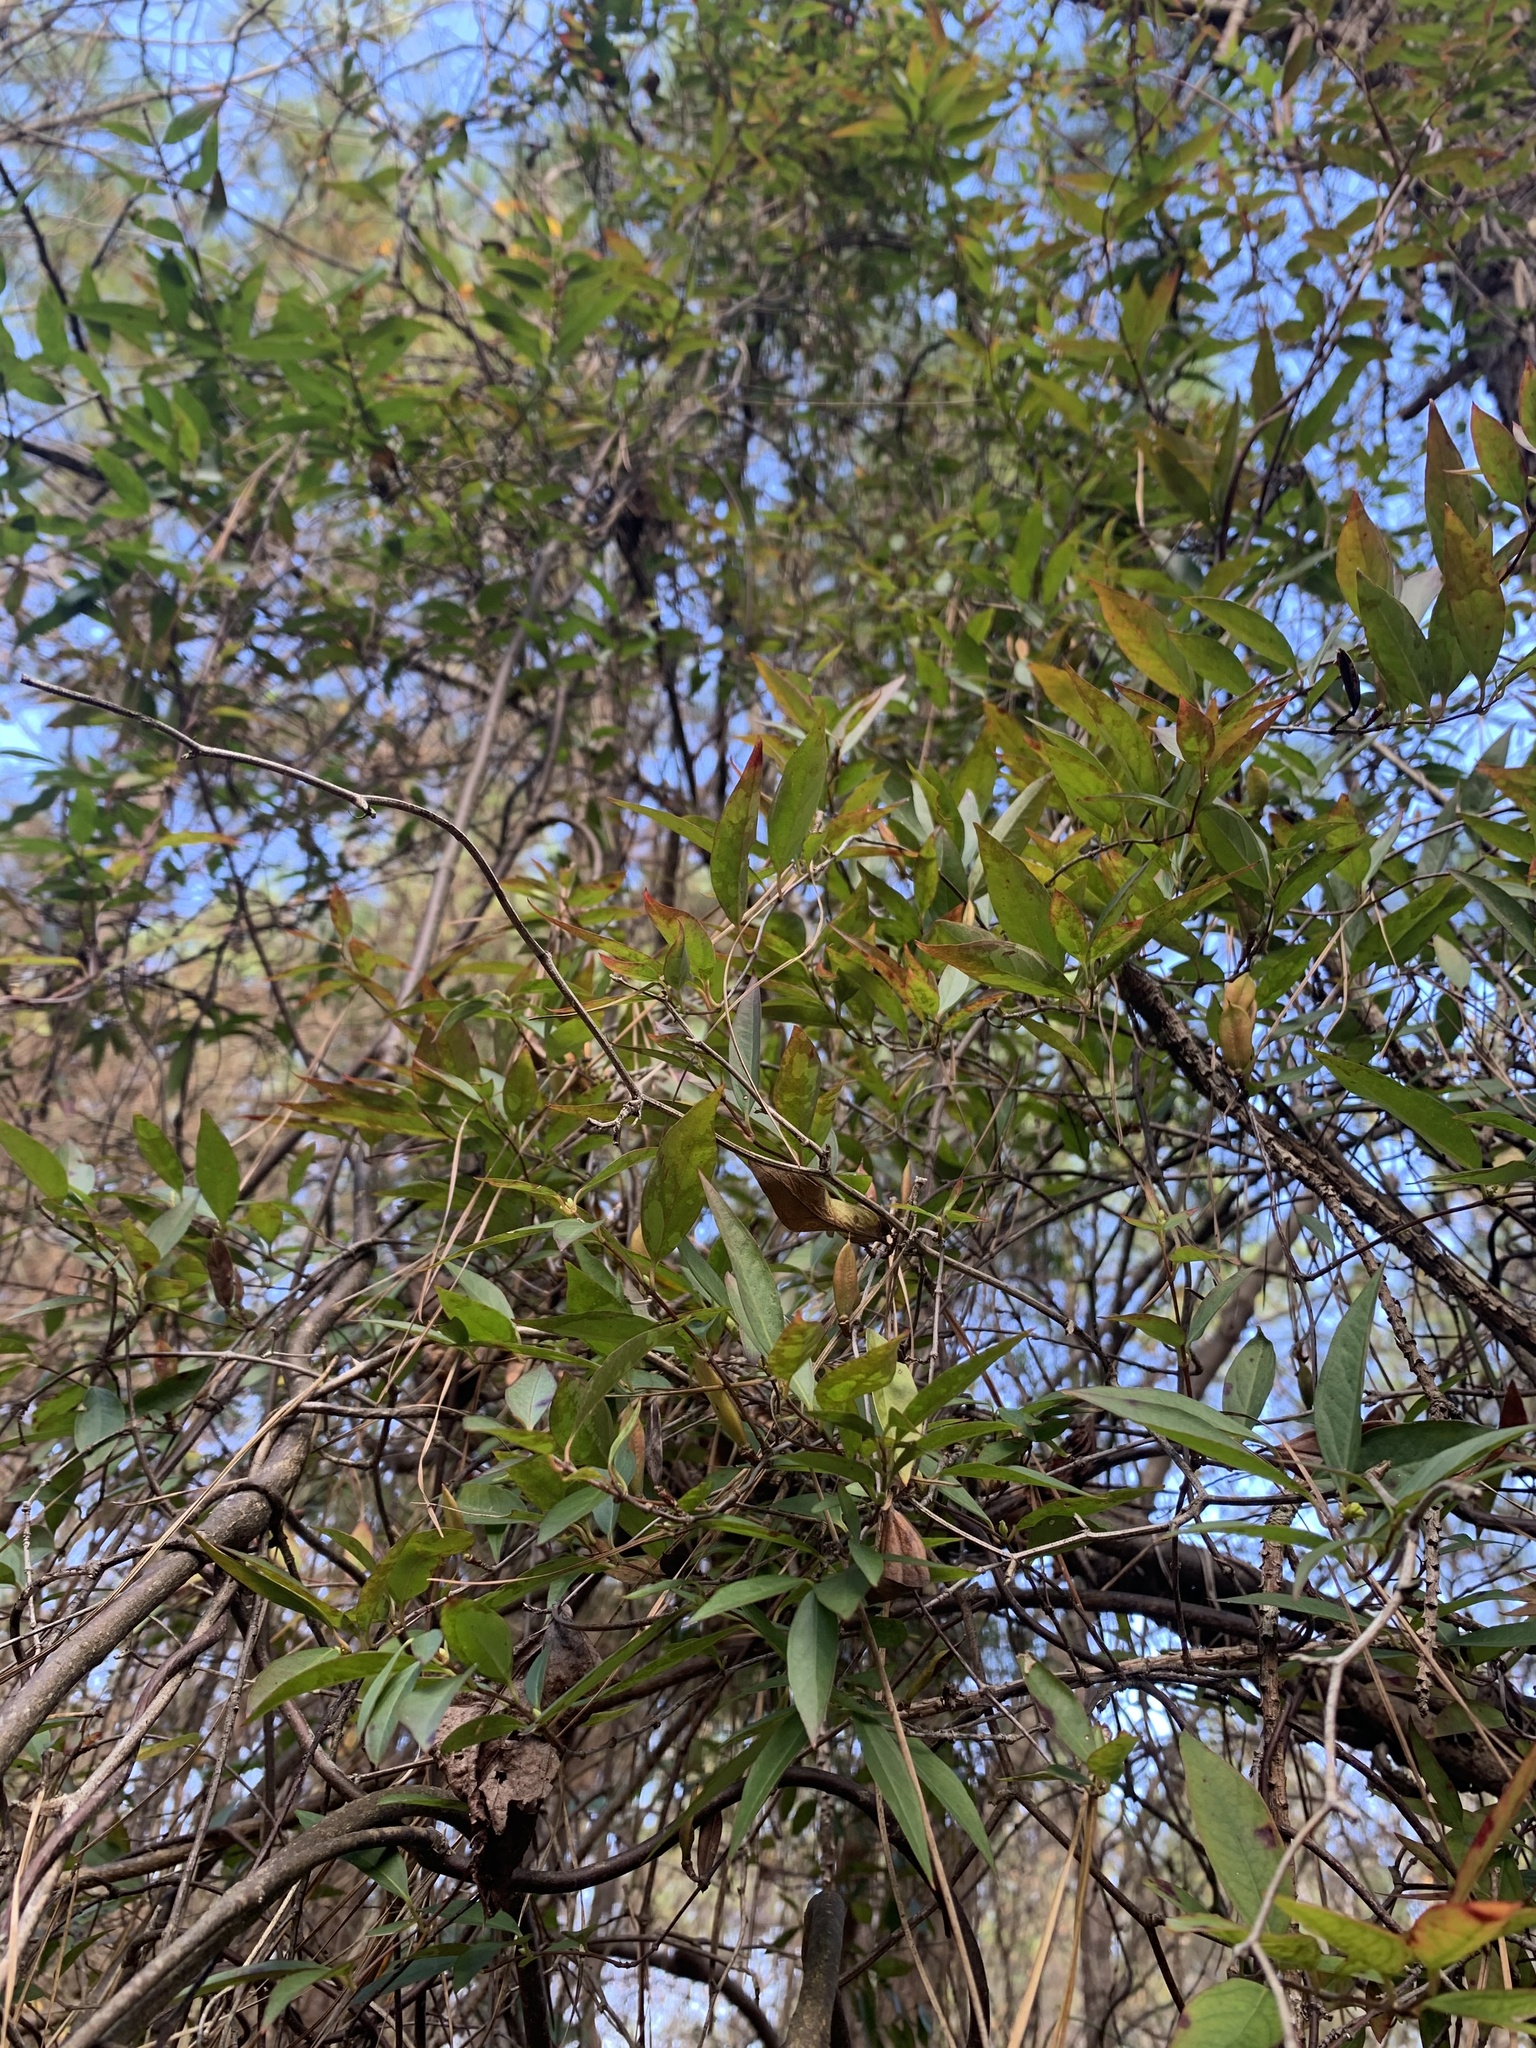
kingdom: Plantae
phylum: Tracheophyta
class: Magnoliopsida
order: Gentianales
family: Gelsemiaceae
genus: Gelsemium
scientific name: Gelsemium sempervirens
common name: Carolina-jasmine
